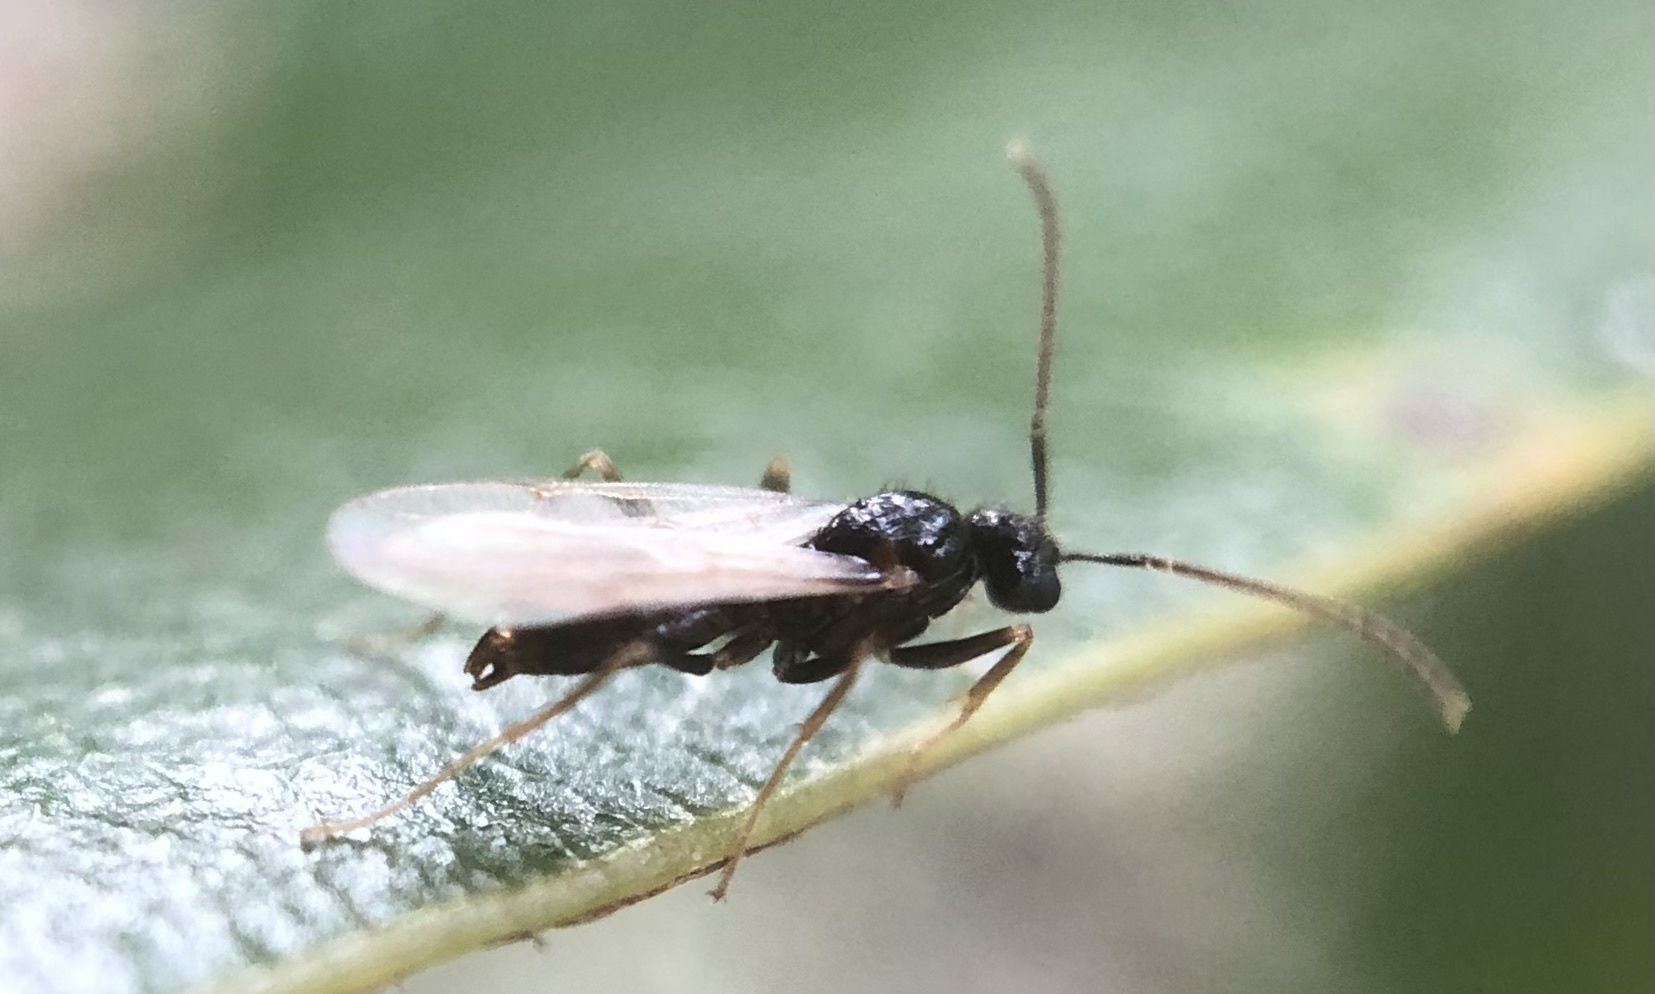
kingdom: Animalia
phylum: Arthropoda
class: Insecta
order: Hymenoptera
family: Formicidae
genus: Prenolepis
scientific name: Prenolepis imparis
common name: Small honey ant
